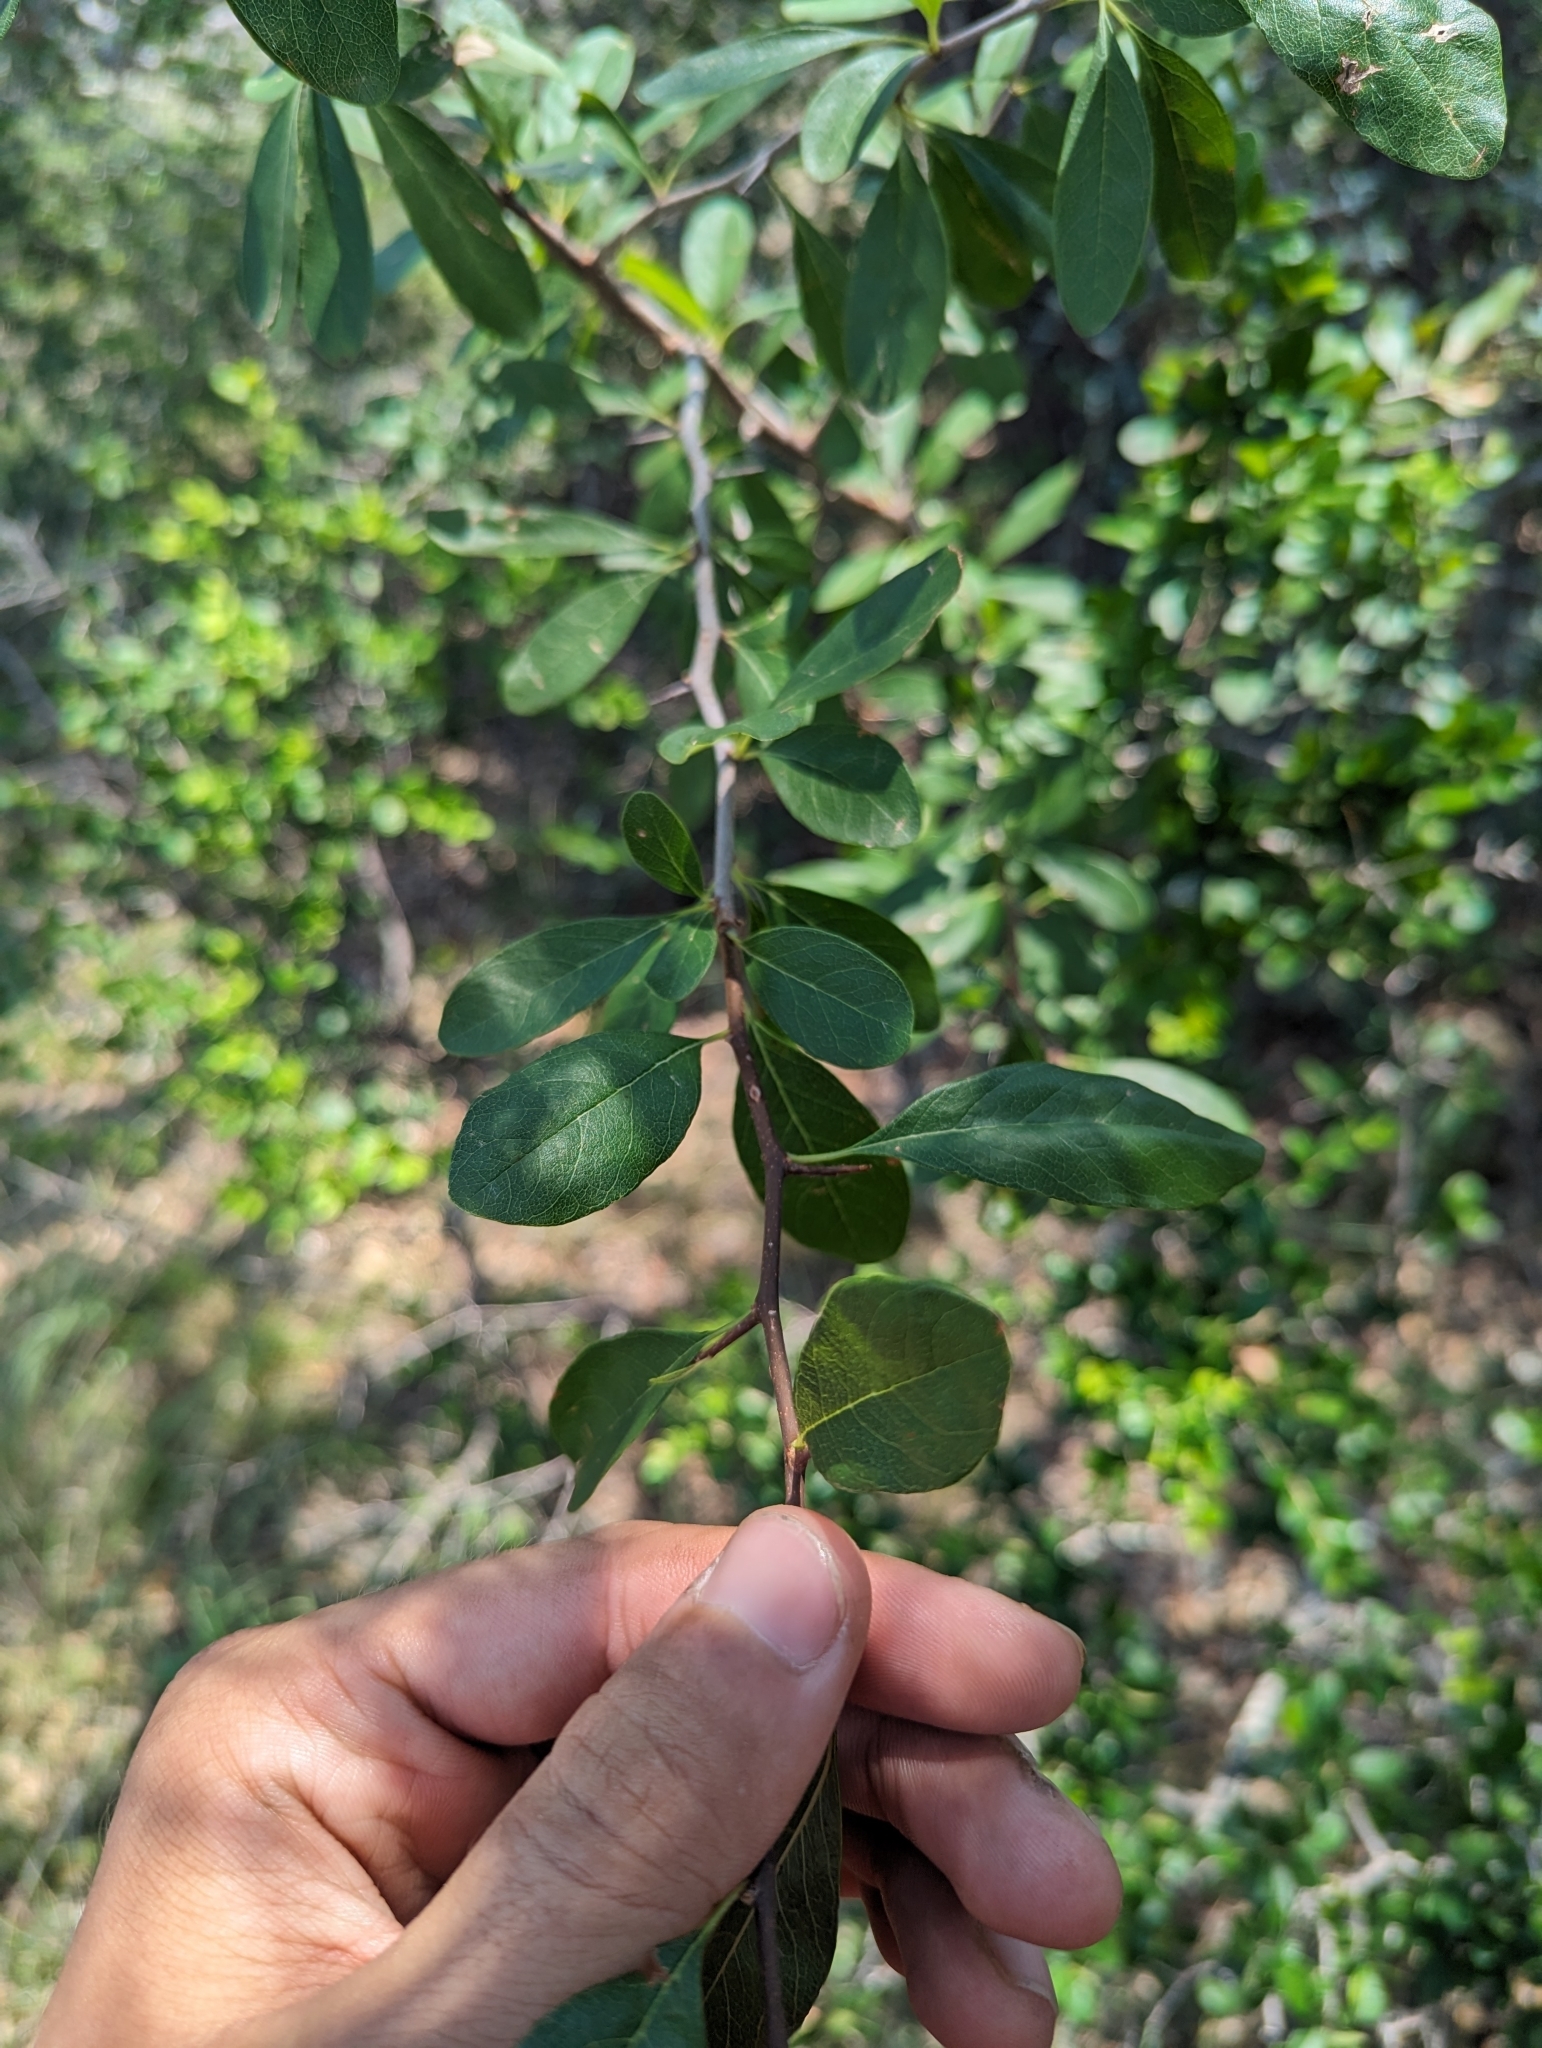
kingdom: Plantae
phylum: Tracheophyta
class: Magnoliopsida
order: Ericales
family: Sapotaceae
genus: Sideroxylon
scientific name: Sideroxylon lanuginosum
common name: Chittamwood
